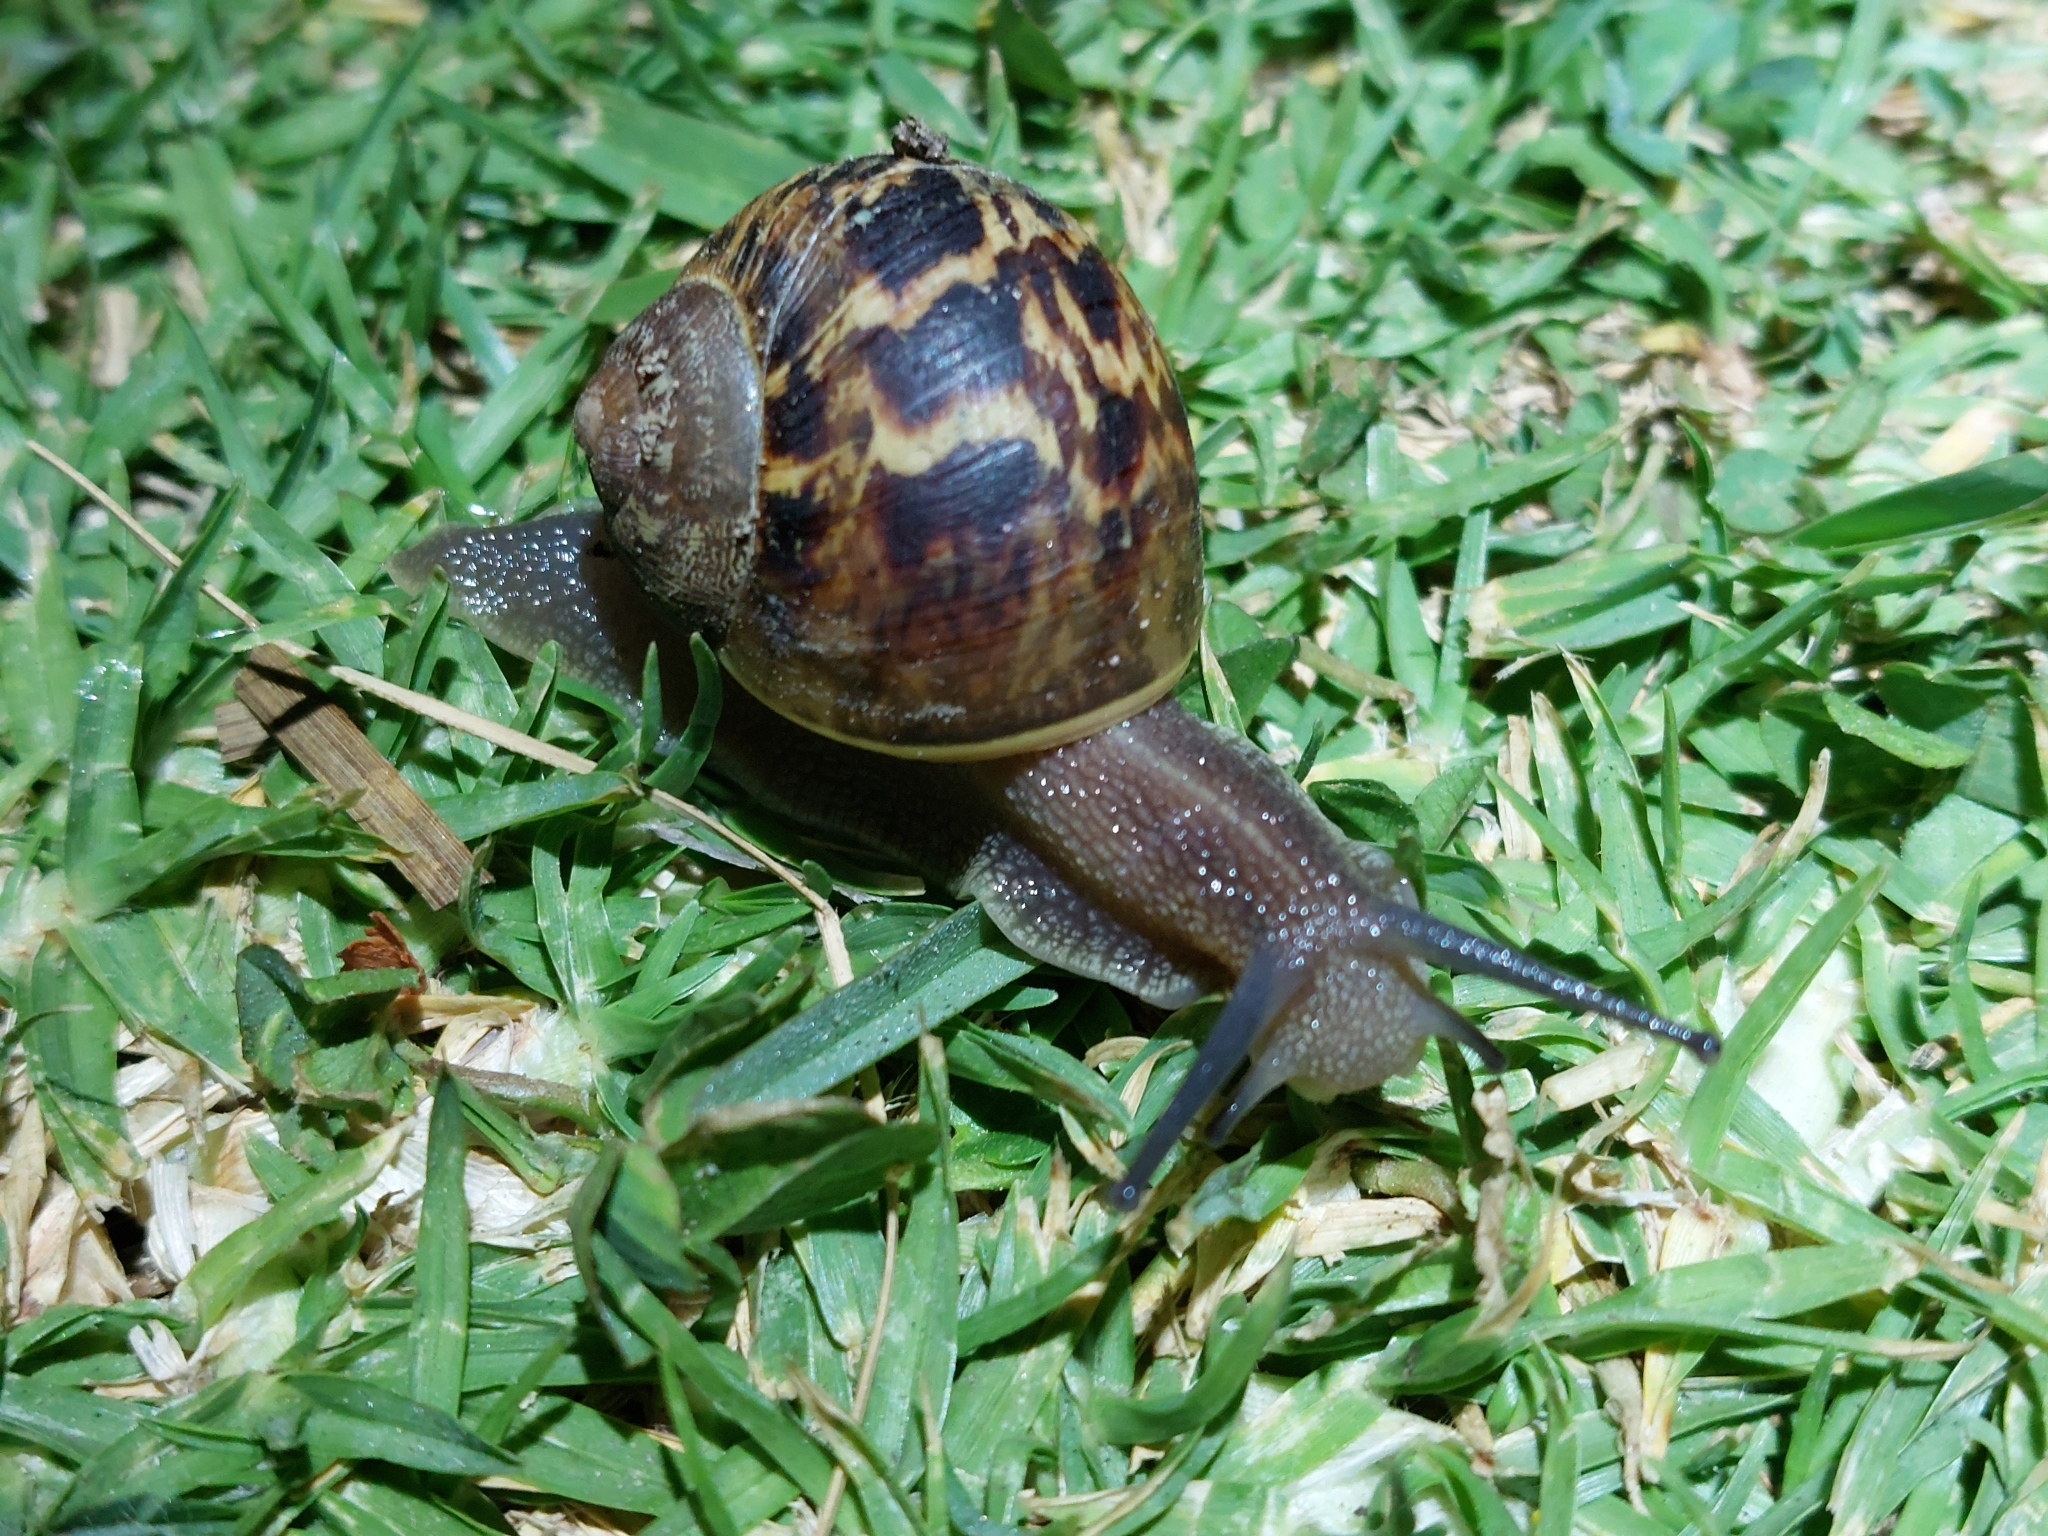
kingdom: Animalia
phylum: Mollusca
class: Gastropoda
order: Stylommatophora
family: Helicidae
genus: Cornu
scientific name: Cornu aspersum
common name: Brown garden snail
